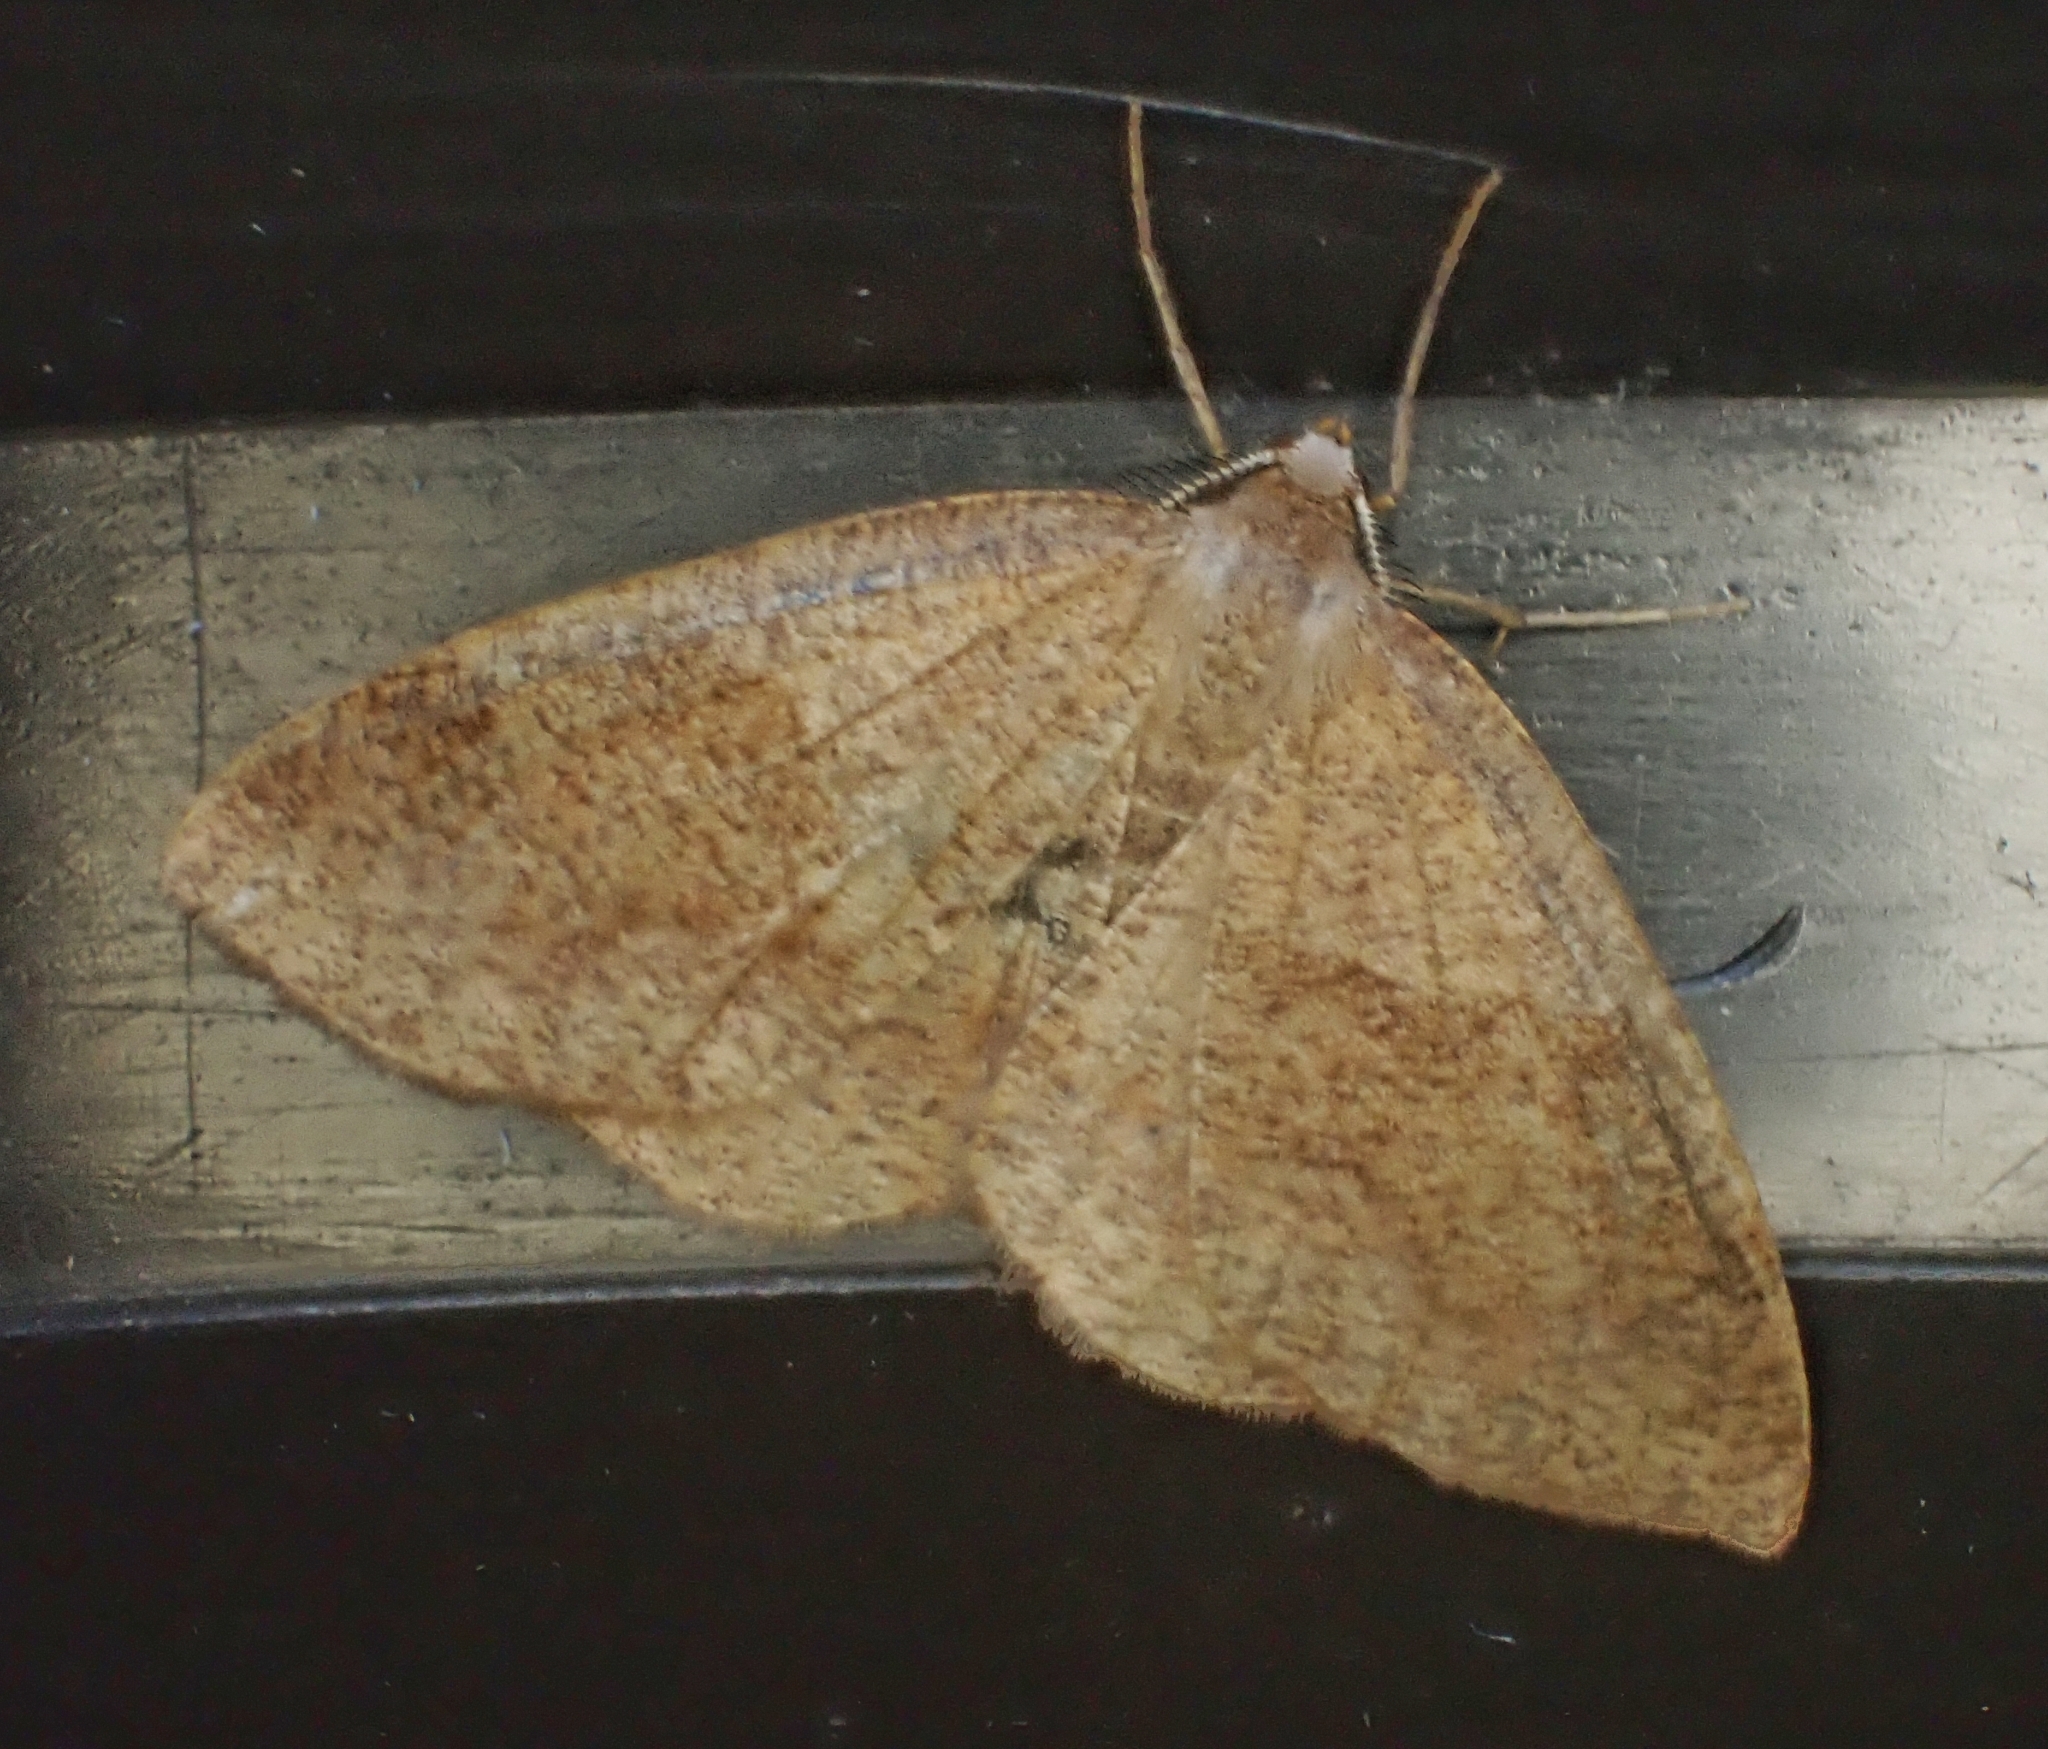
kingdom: Animalia
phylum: Arthropoda
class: Insecta
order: Lepidoptera
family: Geometridae
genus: Plagodis
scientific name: Plagodis pulveraria
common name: Barred umber
